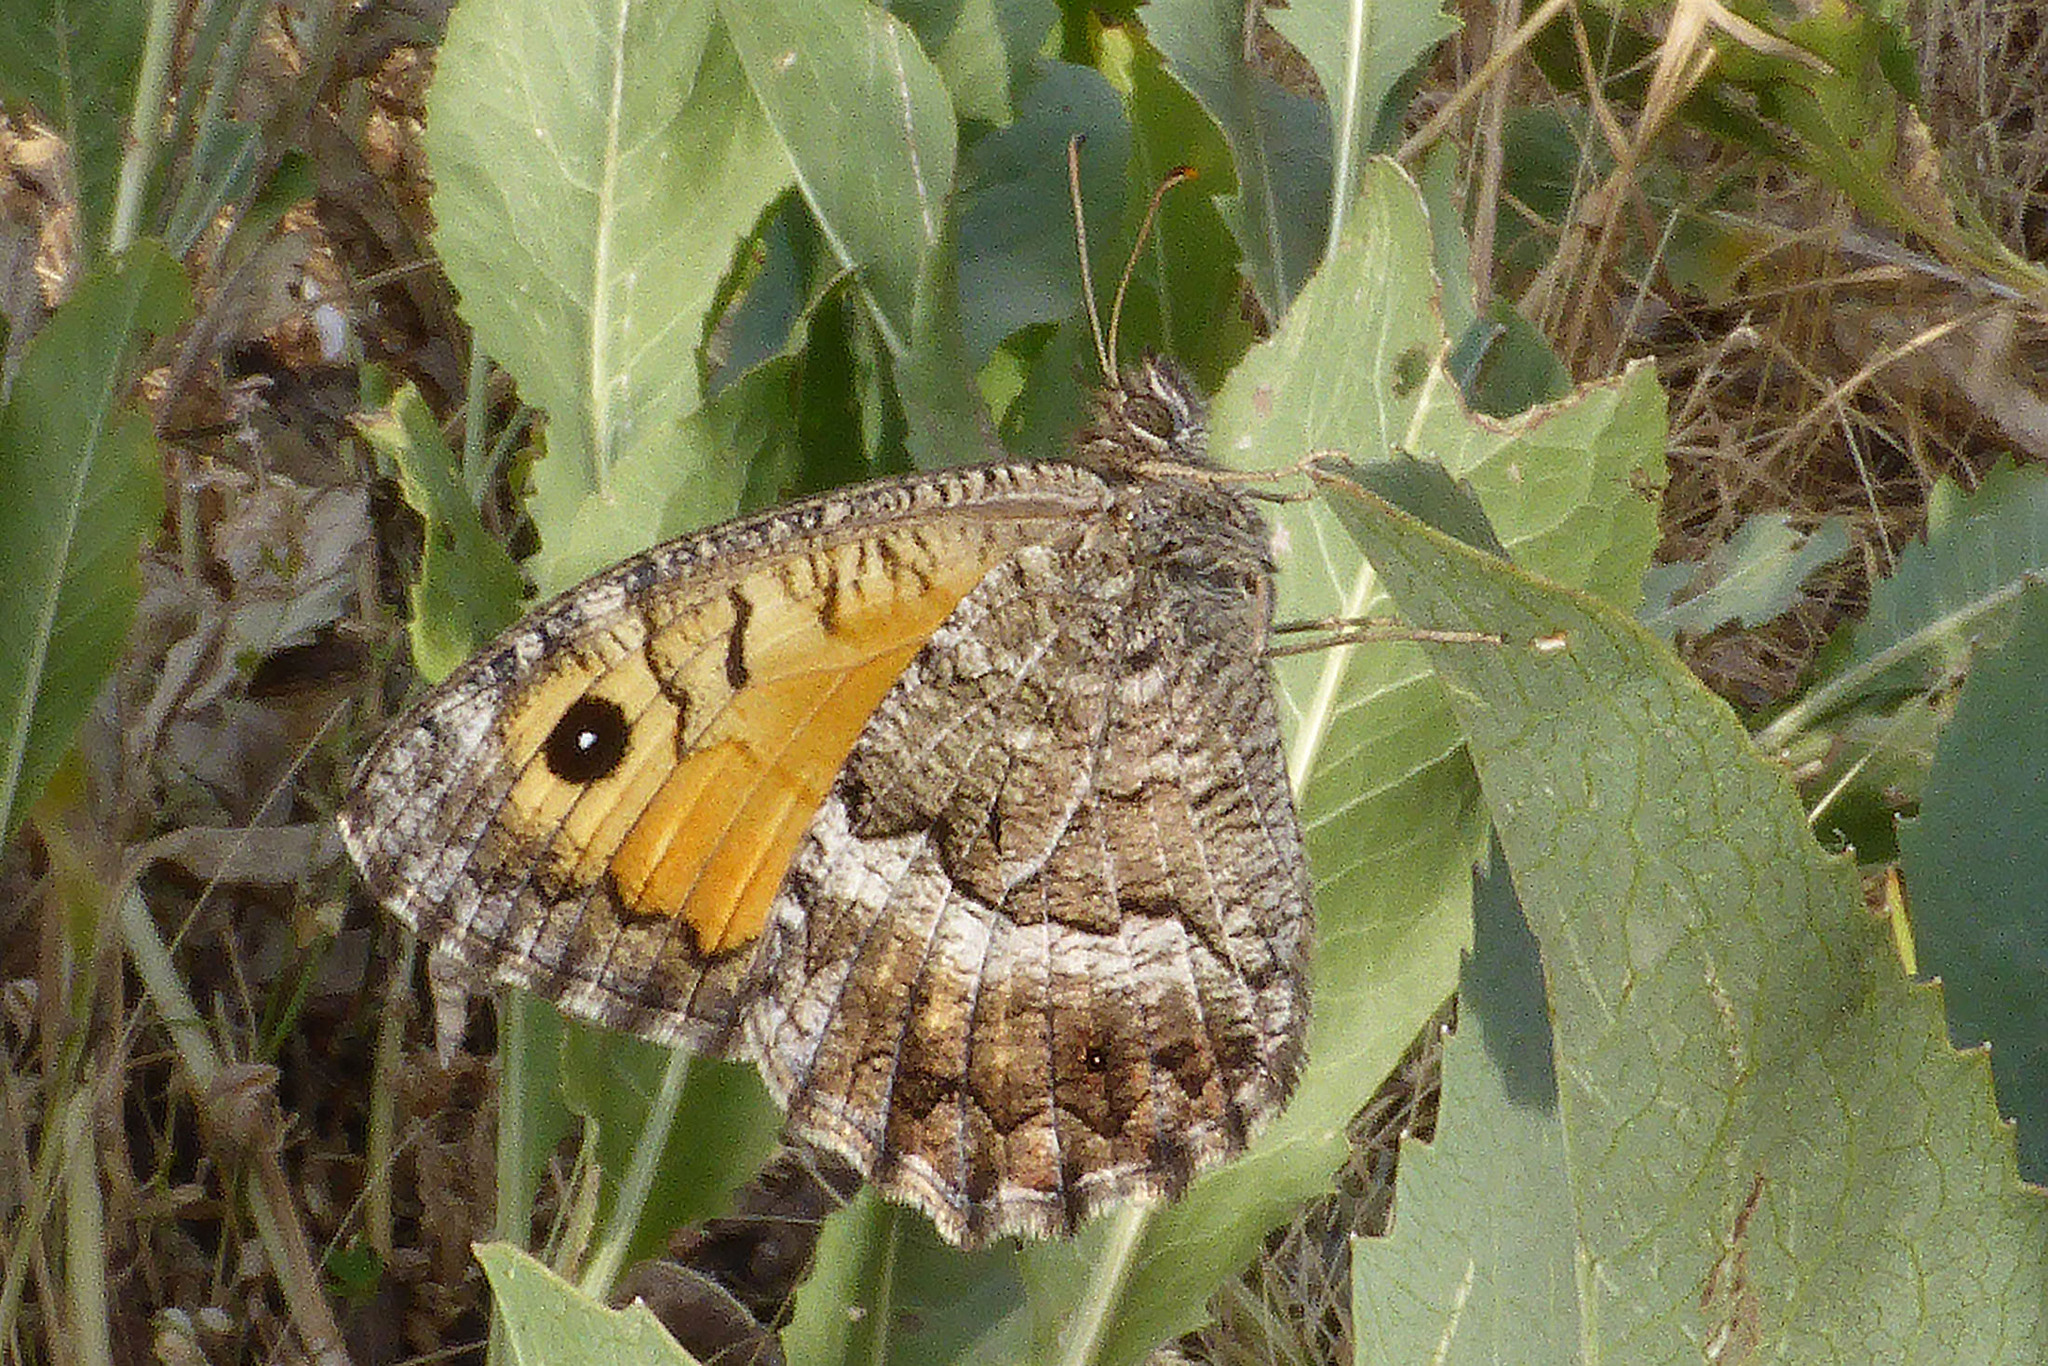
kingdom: Animalia
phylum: Arthropoda
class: Insecta
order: Lepidoptera
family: Nymphalidae
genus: Arethusana
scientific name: Arethusana arethusa
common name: False grayling
